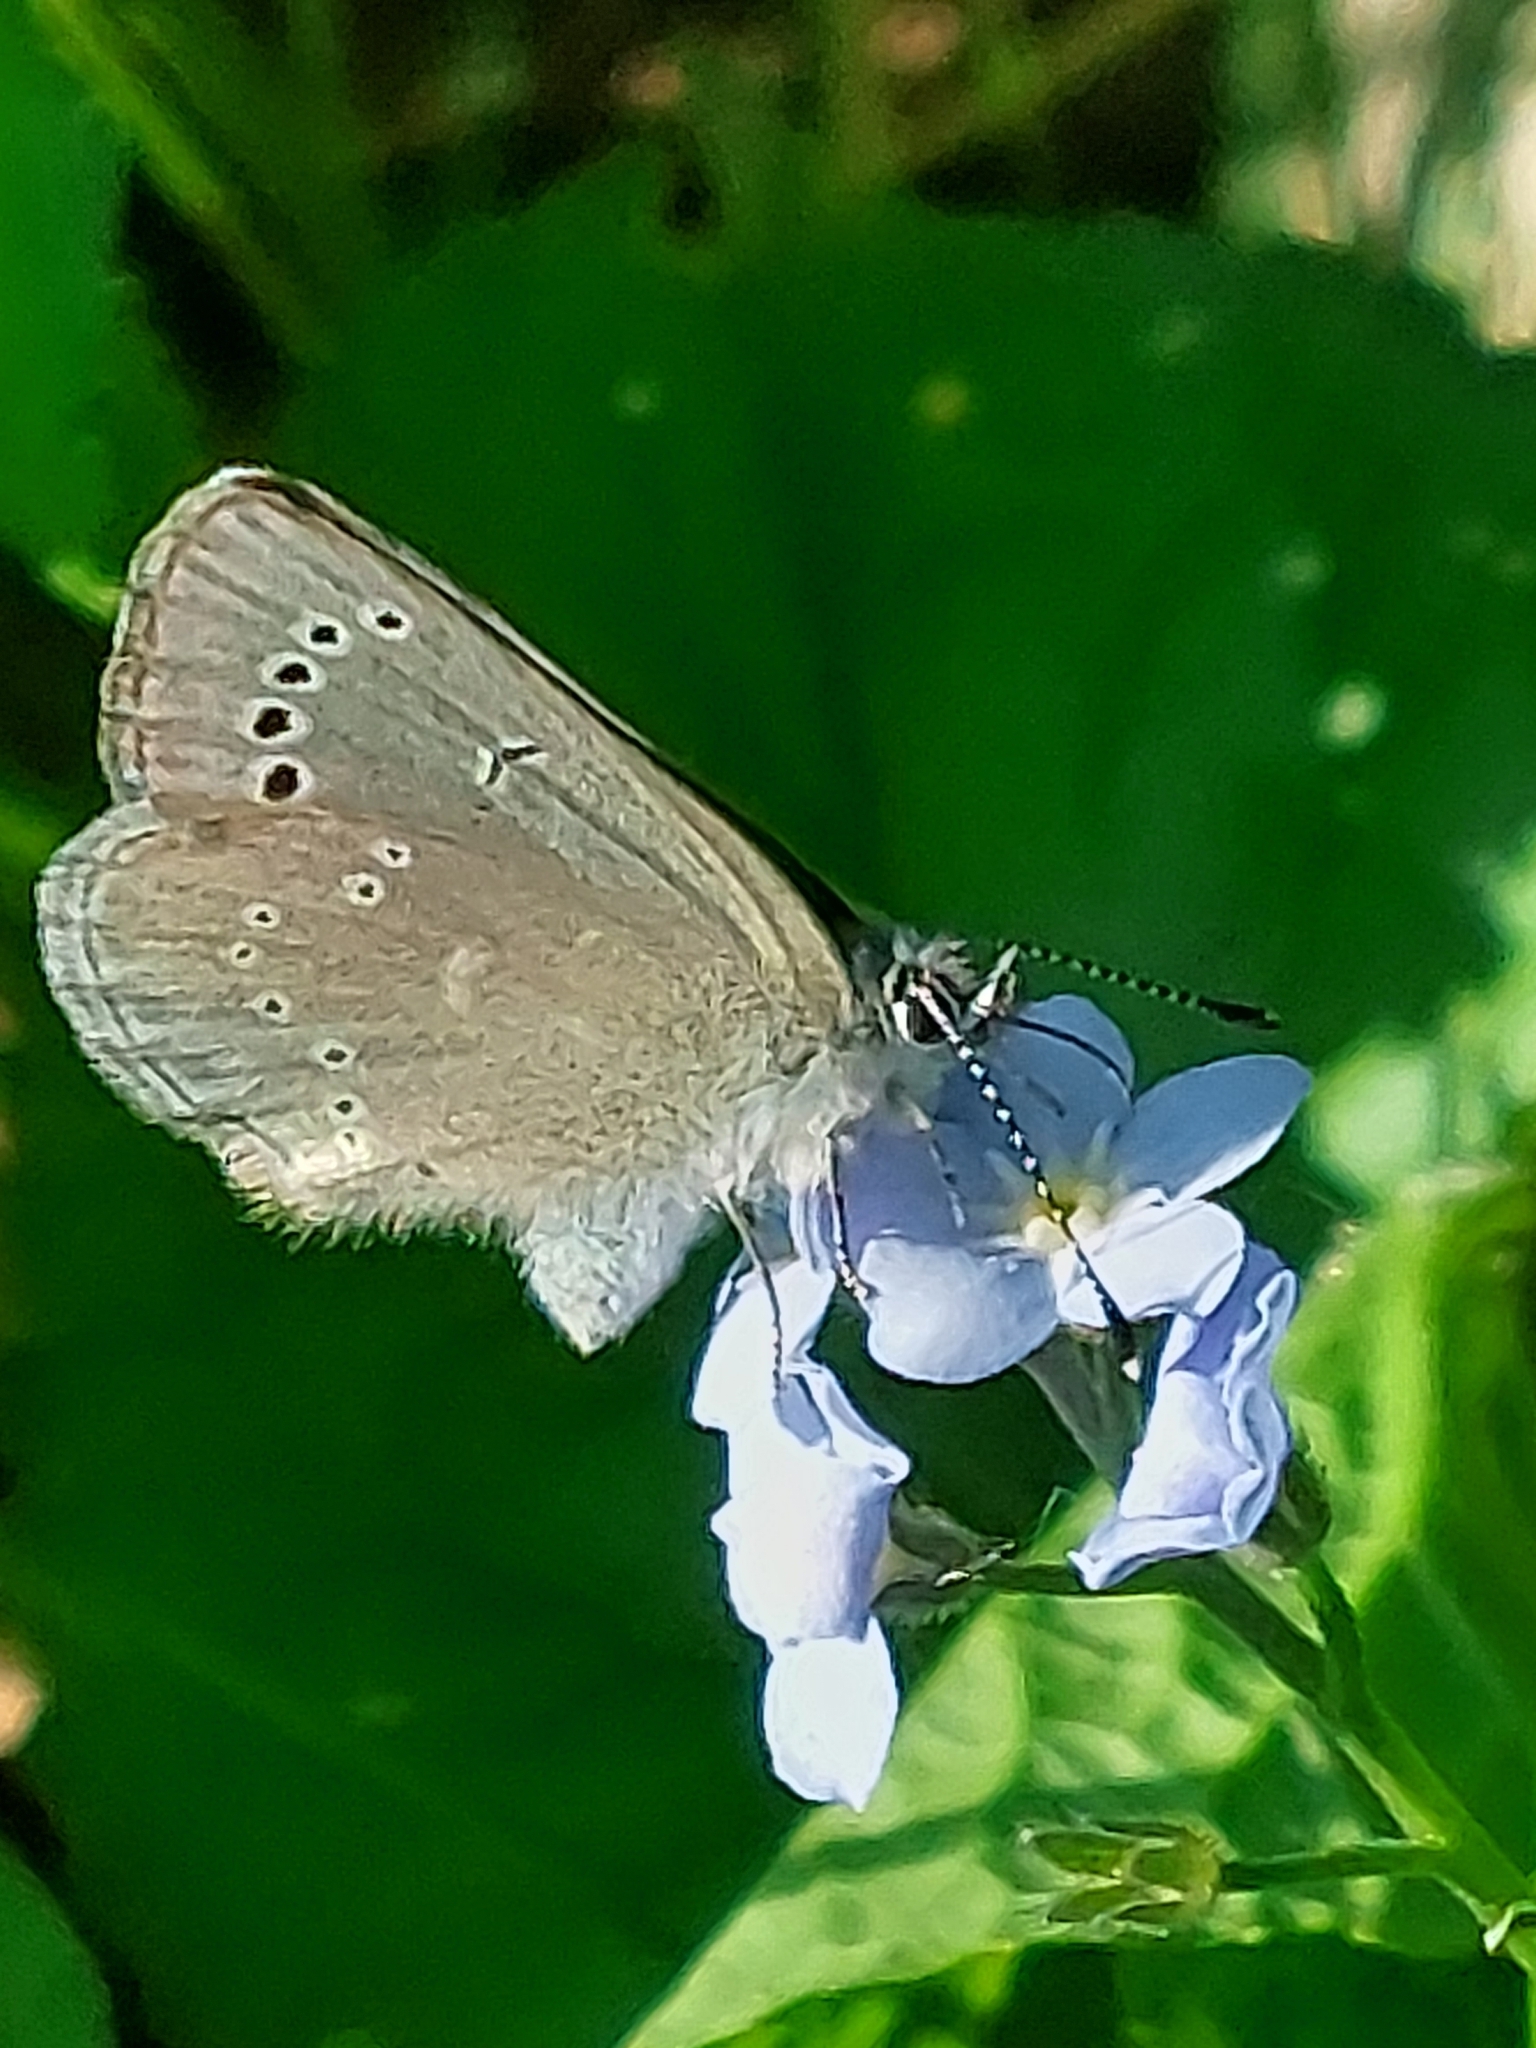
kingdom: Animalia
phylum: Arthropoda
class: Insecta
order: Lepidoptera
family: Lycaenidae
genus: Glaucopsyche
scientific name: Glaucopsyche lygdamus
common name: Silvery blue
